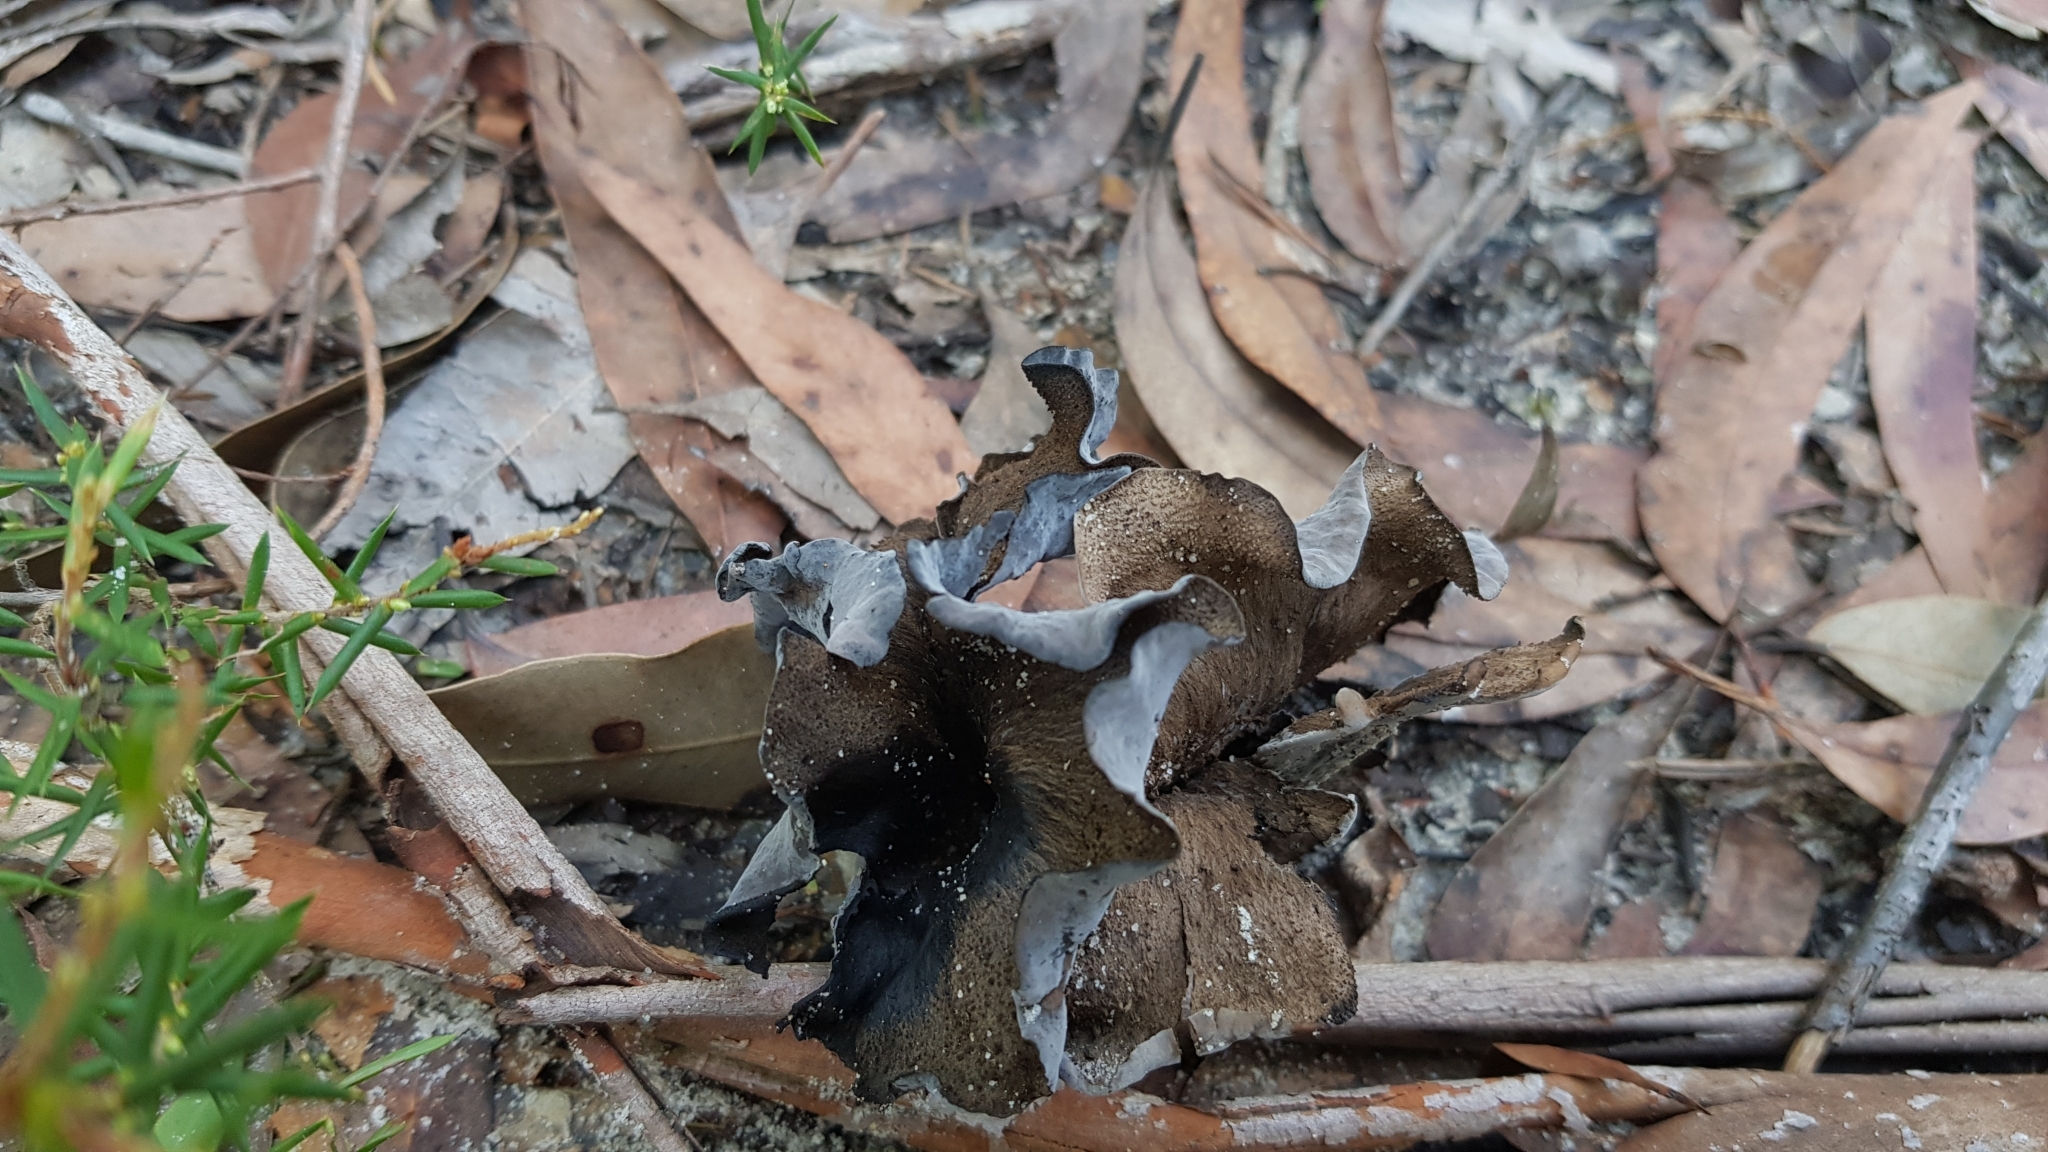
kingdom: Fungi
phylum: Basidiomycota
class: Agaricomycetes
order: Cantharellales
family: Hydnaceae
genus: Craterellus
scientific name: Craterellus cornucopioides
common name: Horn of plenty
